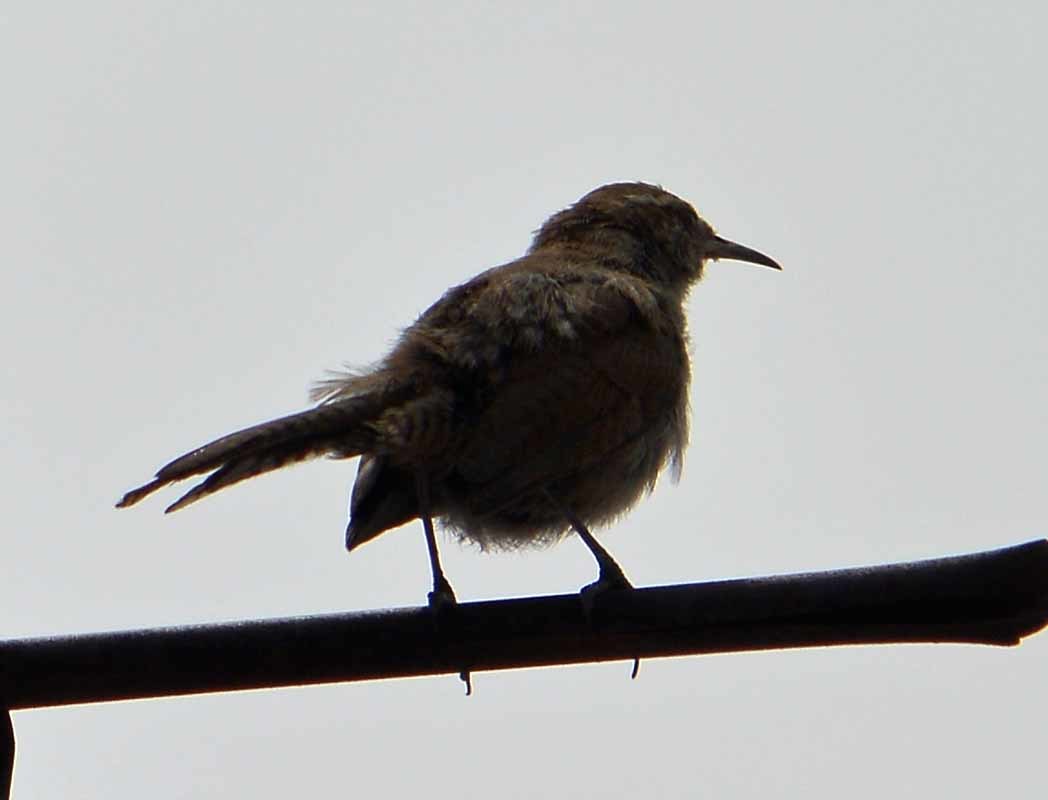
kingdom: Animalia
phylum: Chordata
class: Aves
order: Passeriformes
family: Troglodytidae
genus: Thryomanes
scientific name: Thryomanes bewickii
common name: Bewick's wren
